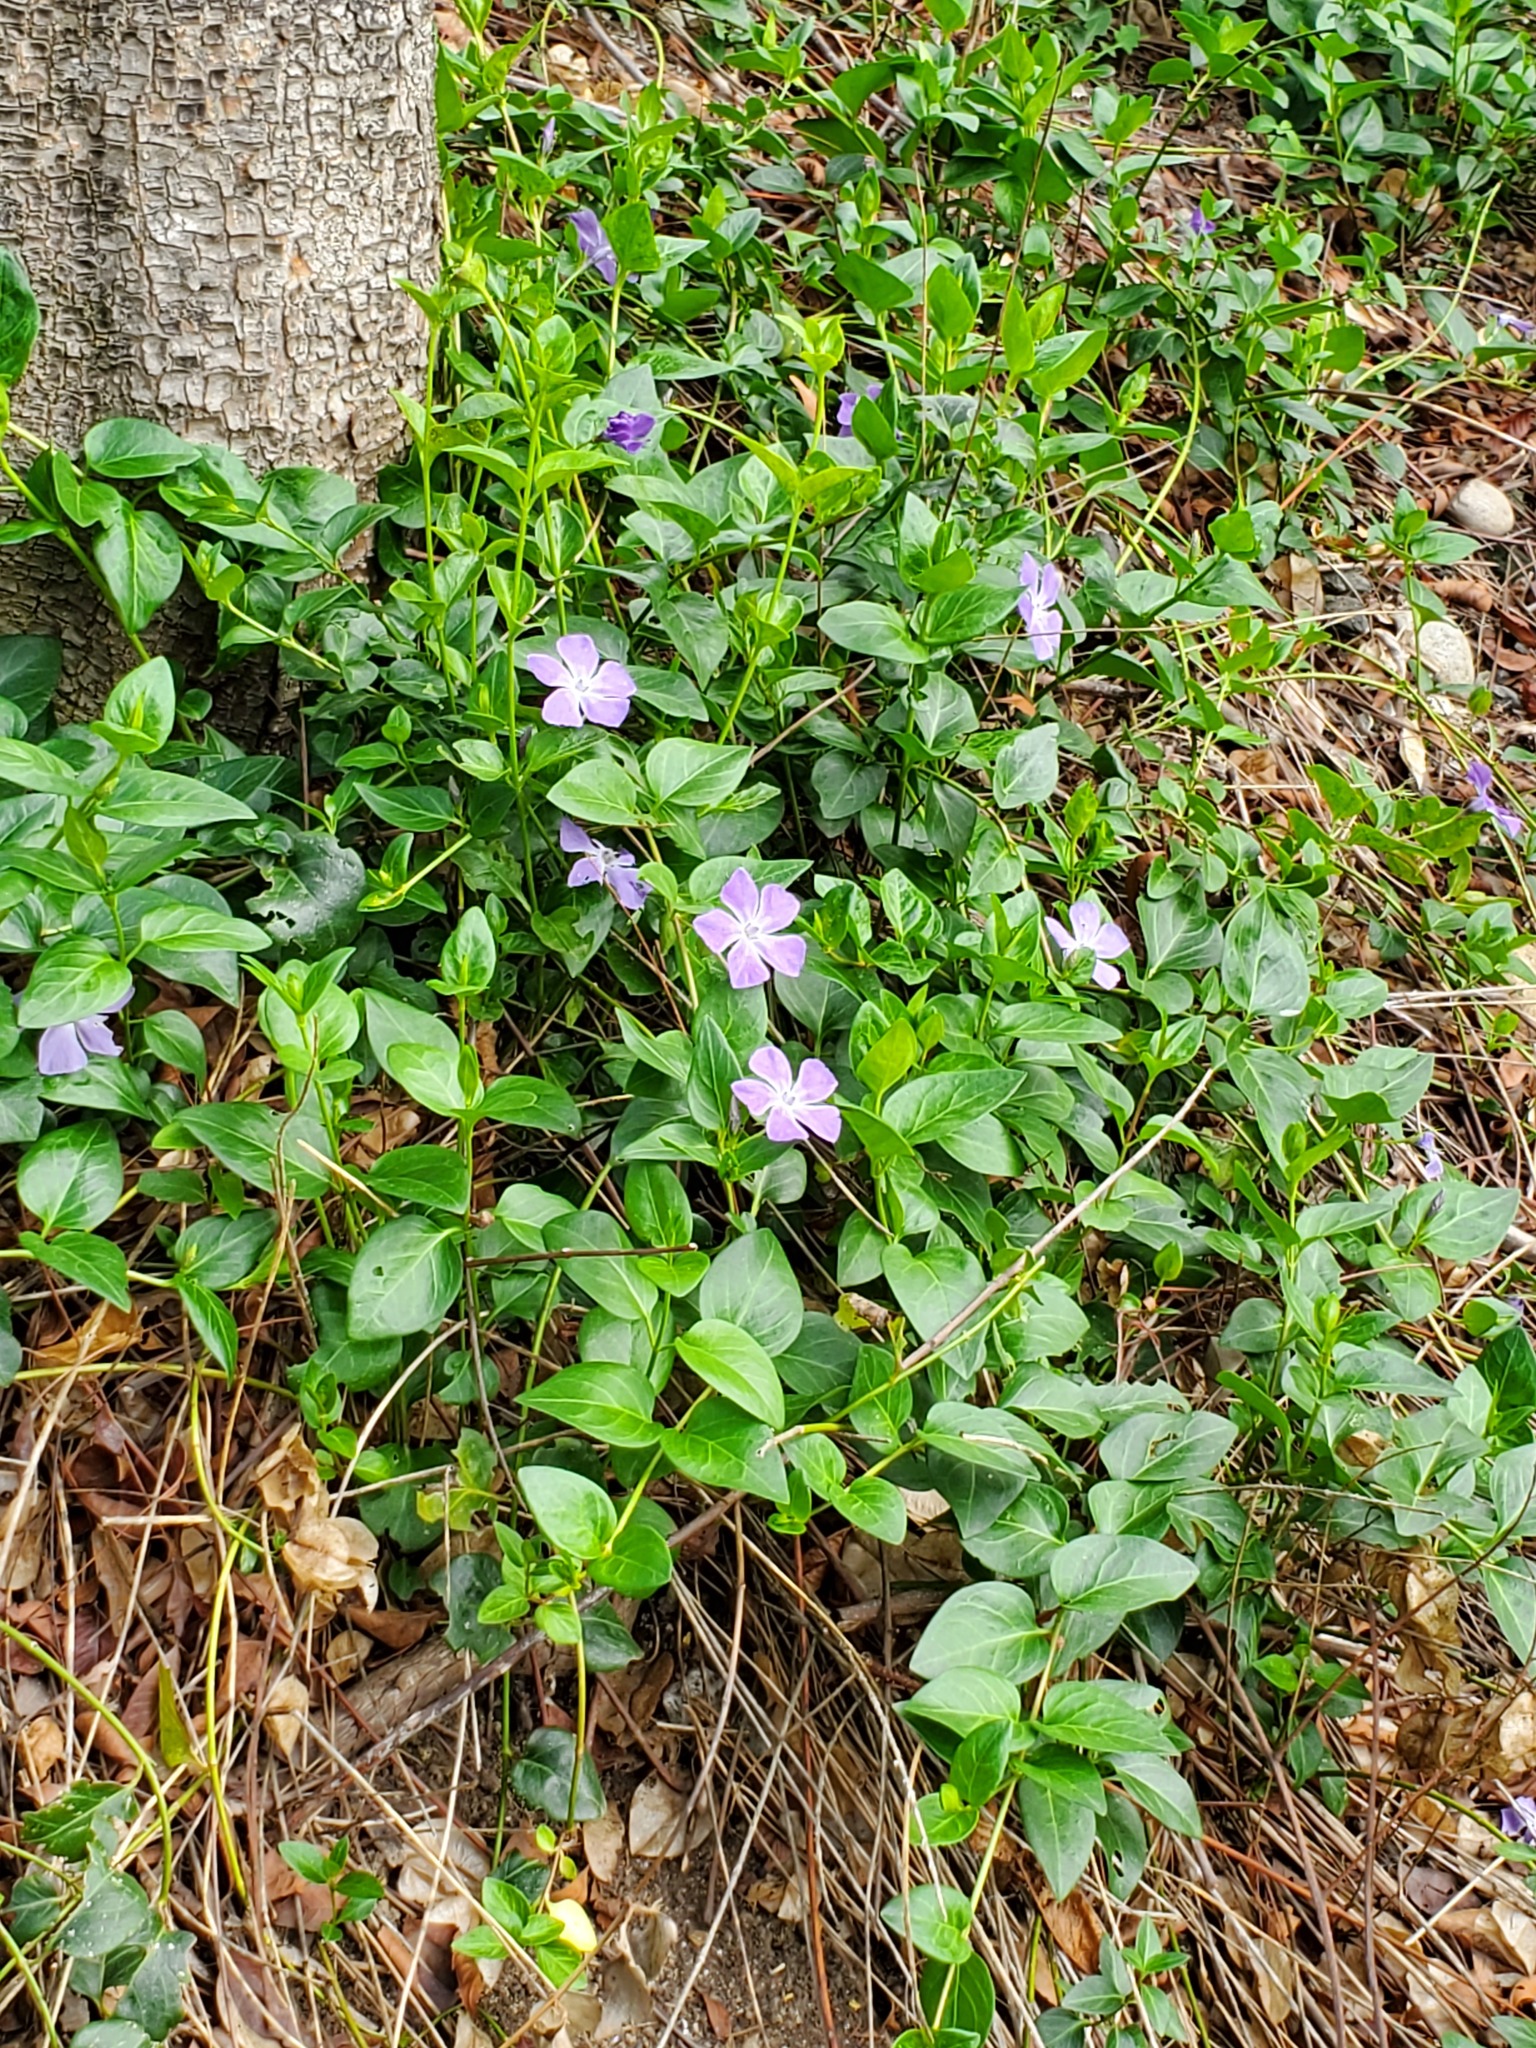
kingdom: Plantae
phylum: Tracheophyta
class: Magnoliopsida
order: Gentianales
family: Apocynaceae
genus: Vinca
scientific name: Vinca major
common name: Greater periwinkle
